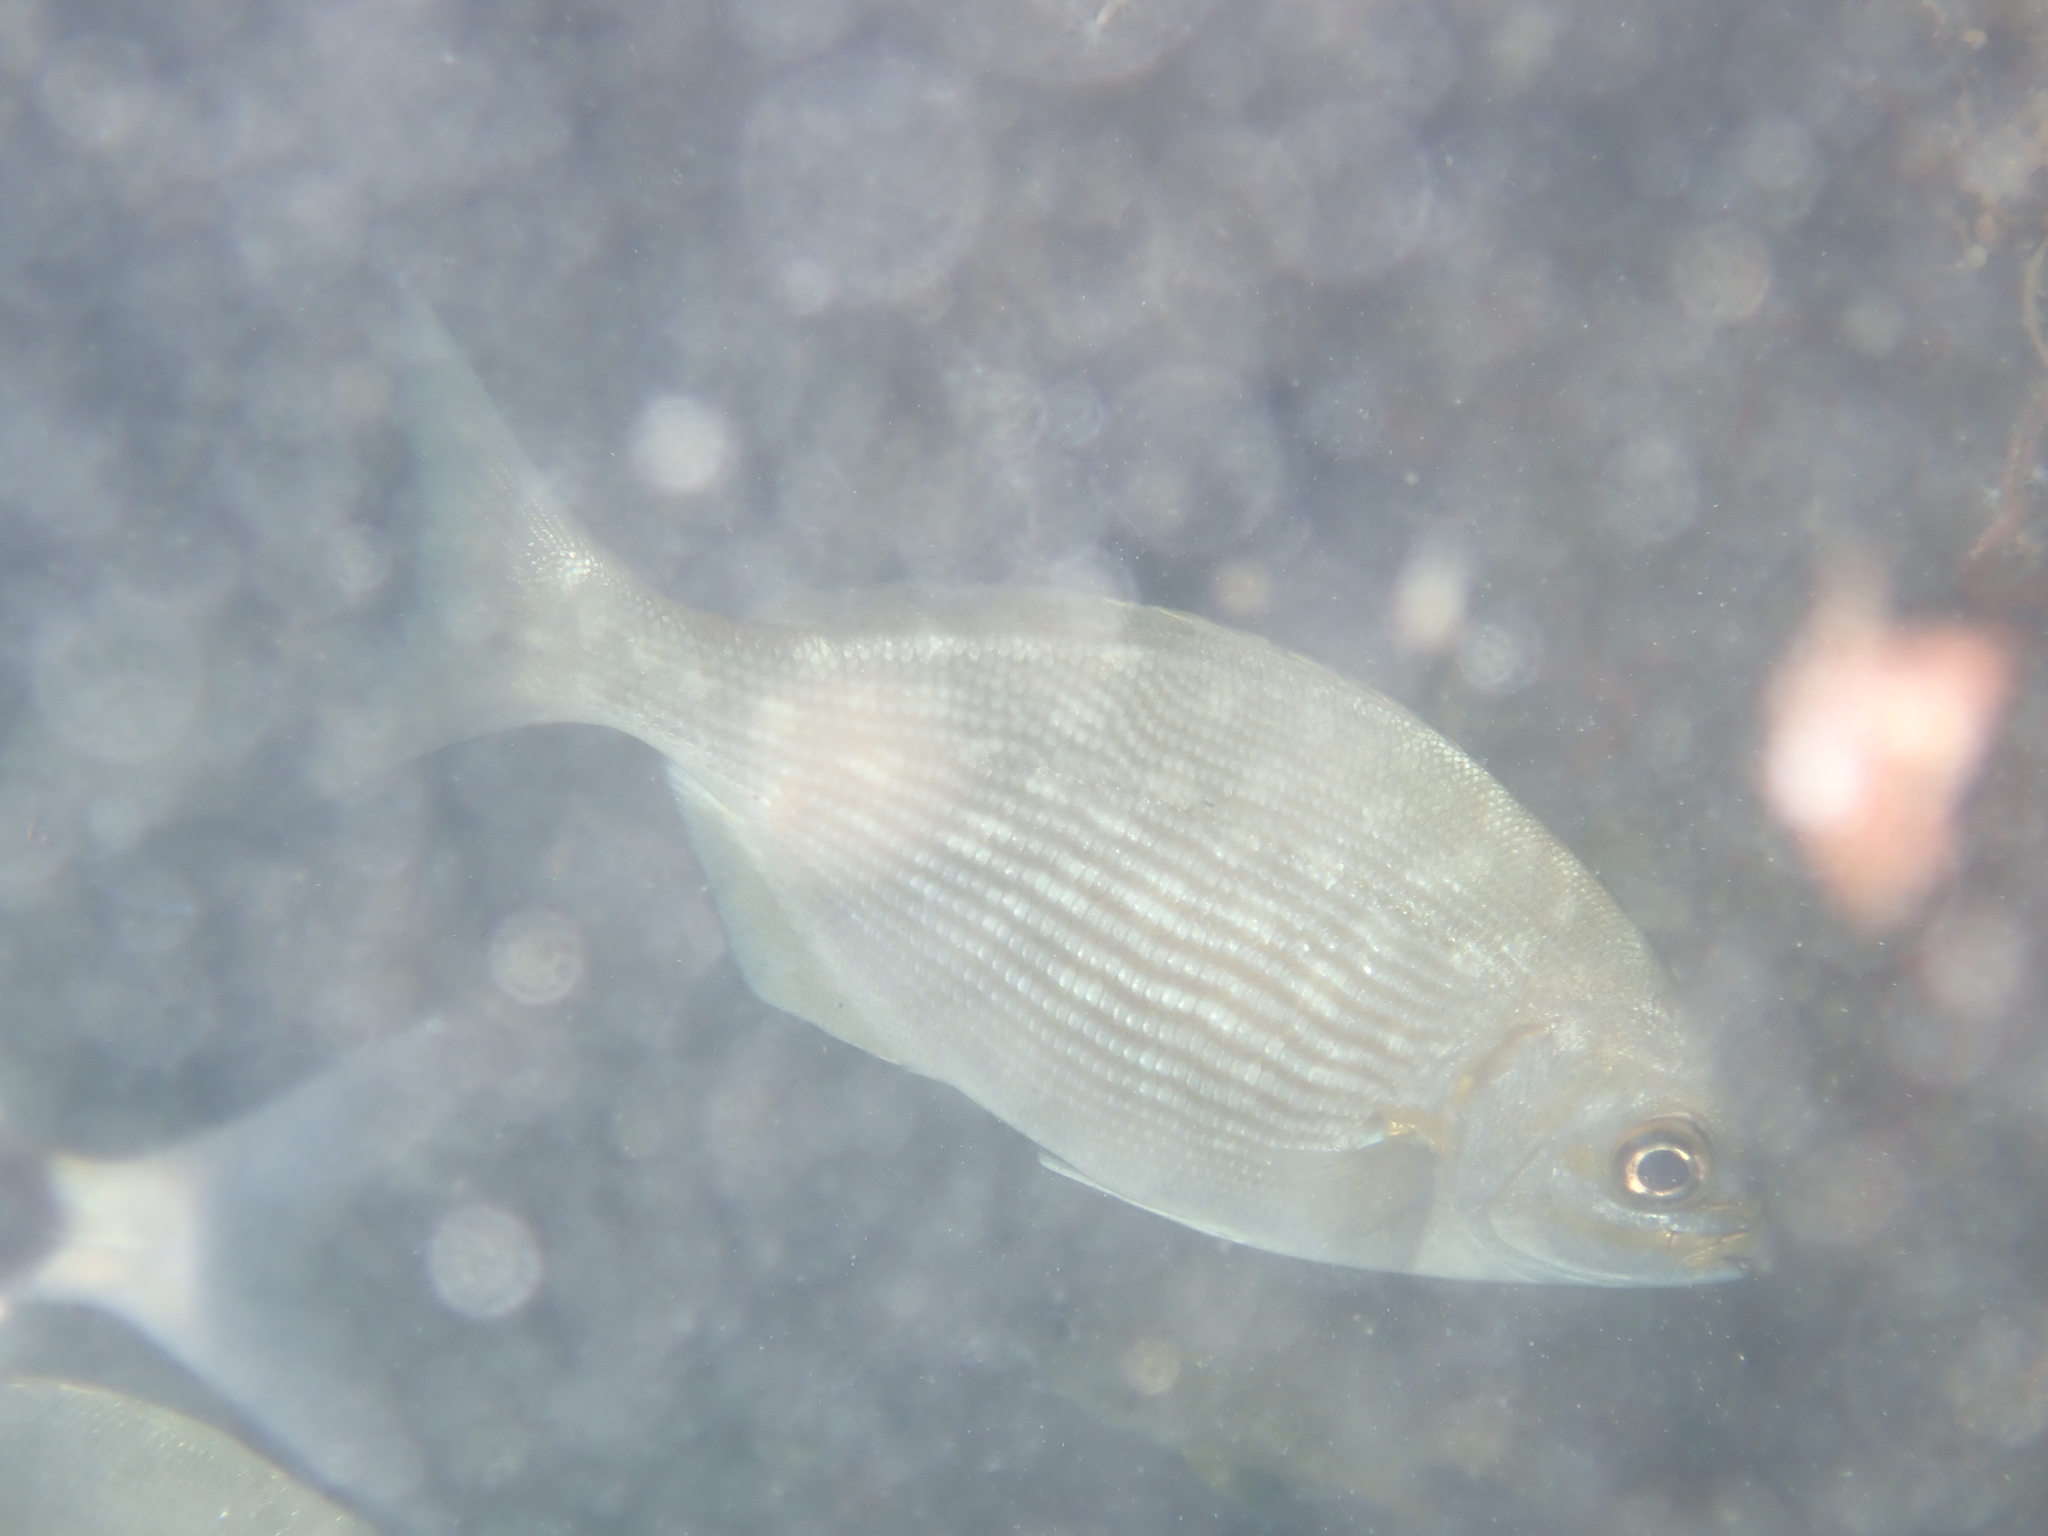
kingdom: Animalia
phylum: Chordata
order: Perciformes
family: Kyphosidae
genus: Kyphosus
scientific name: Kyphosus vaigiensis
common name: Brassy chub
